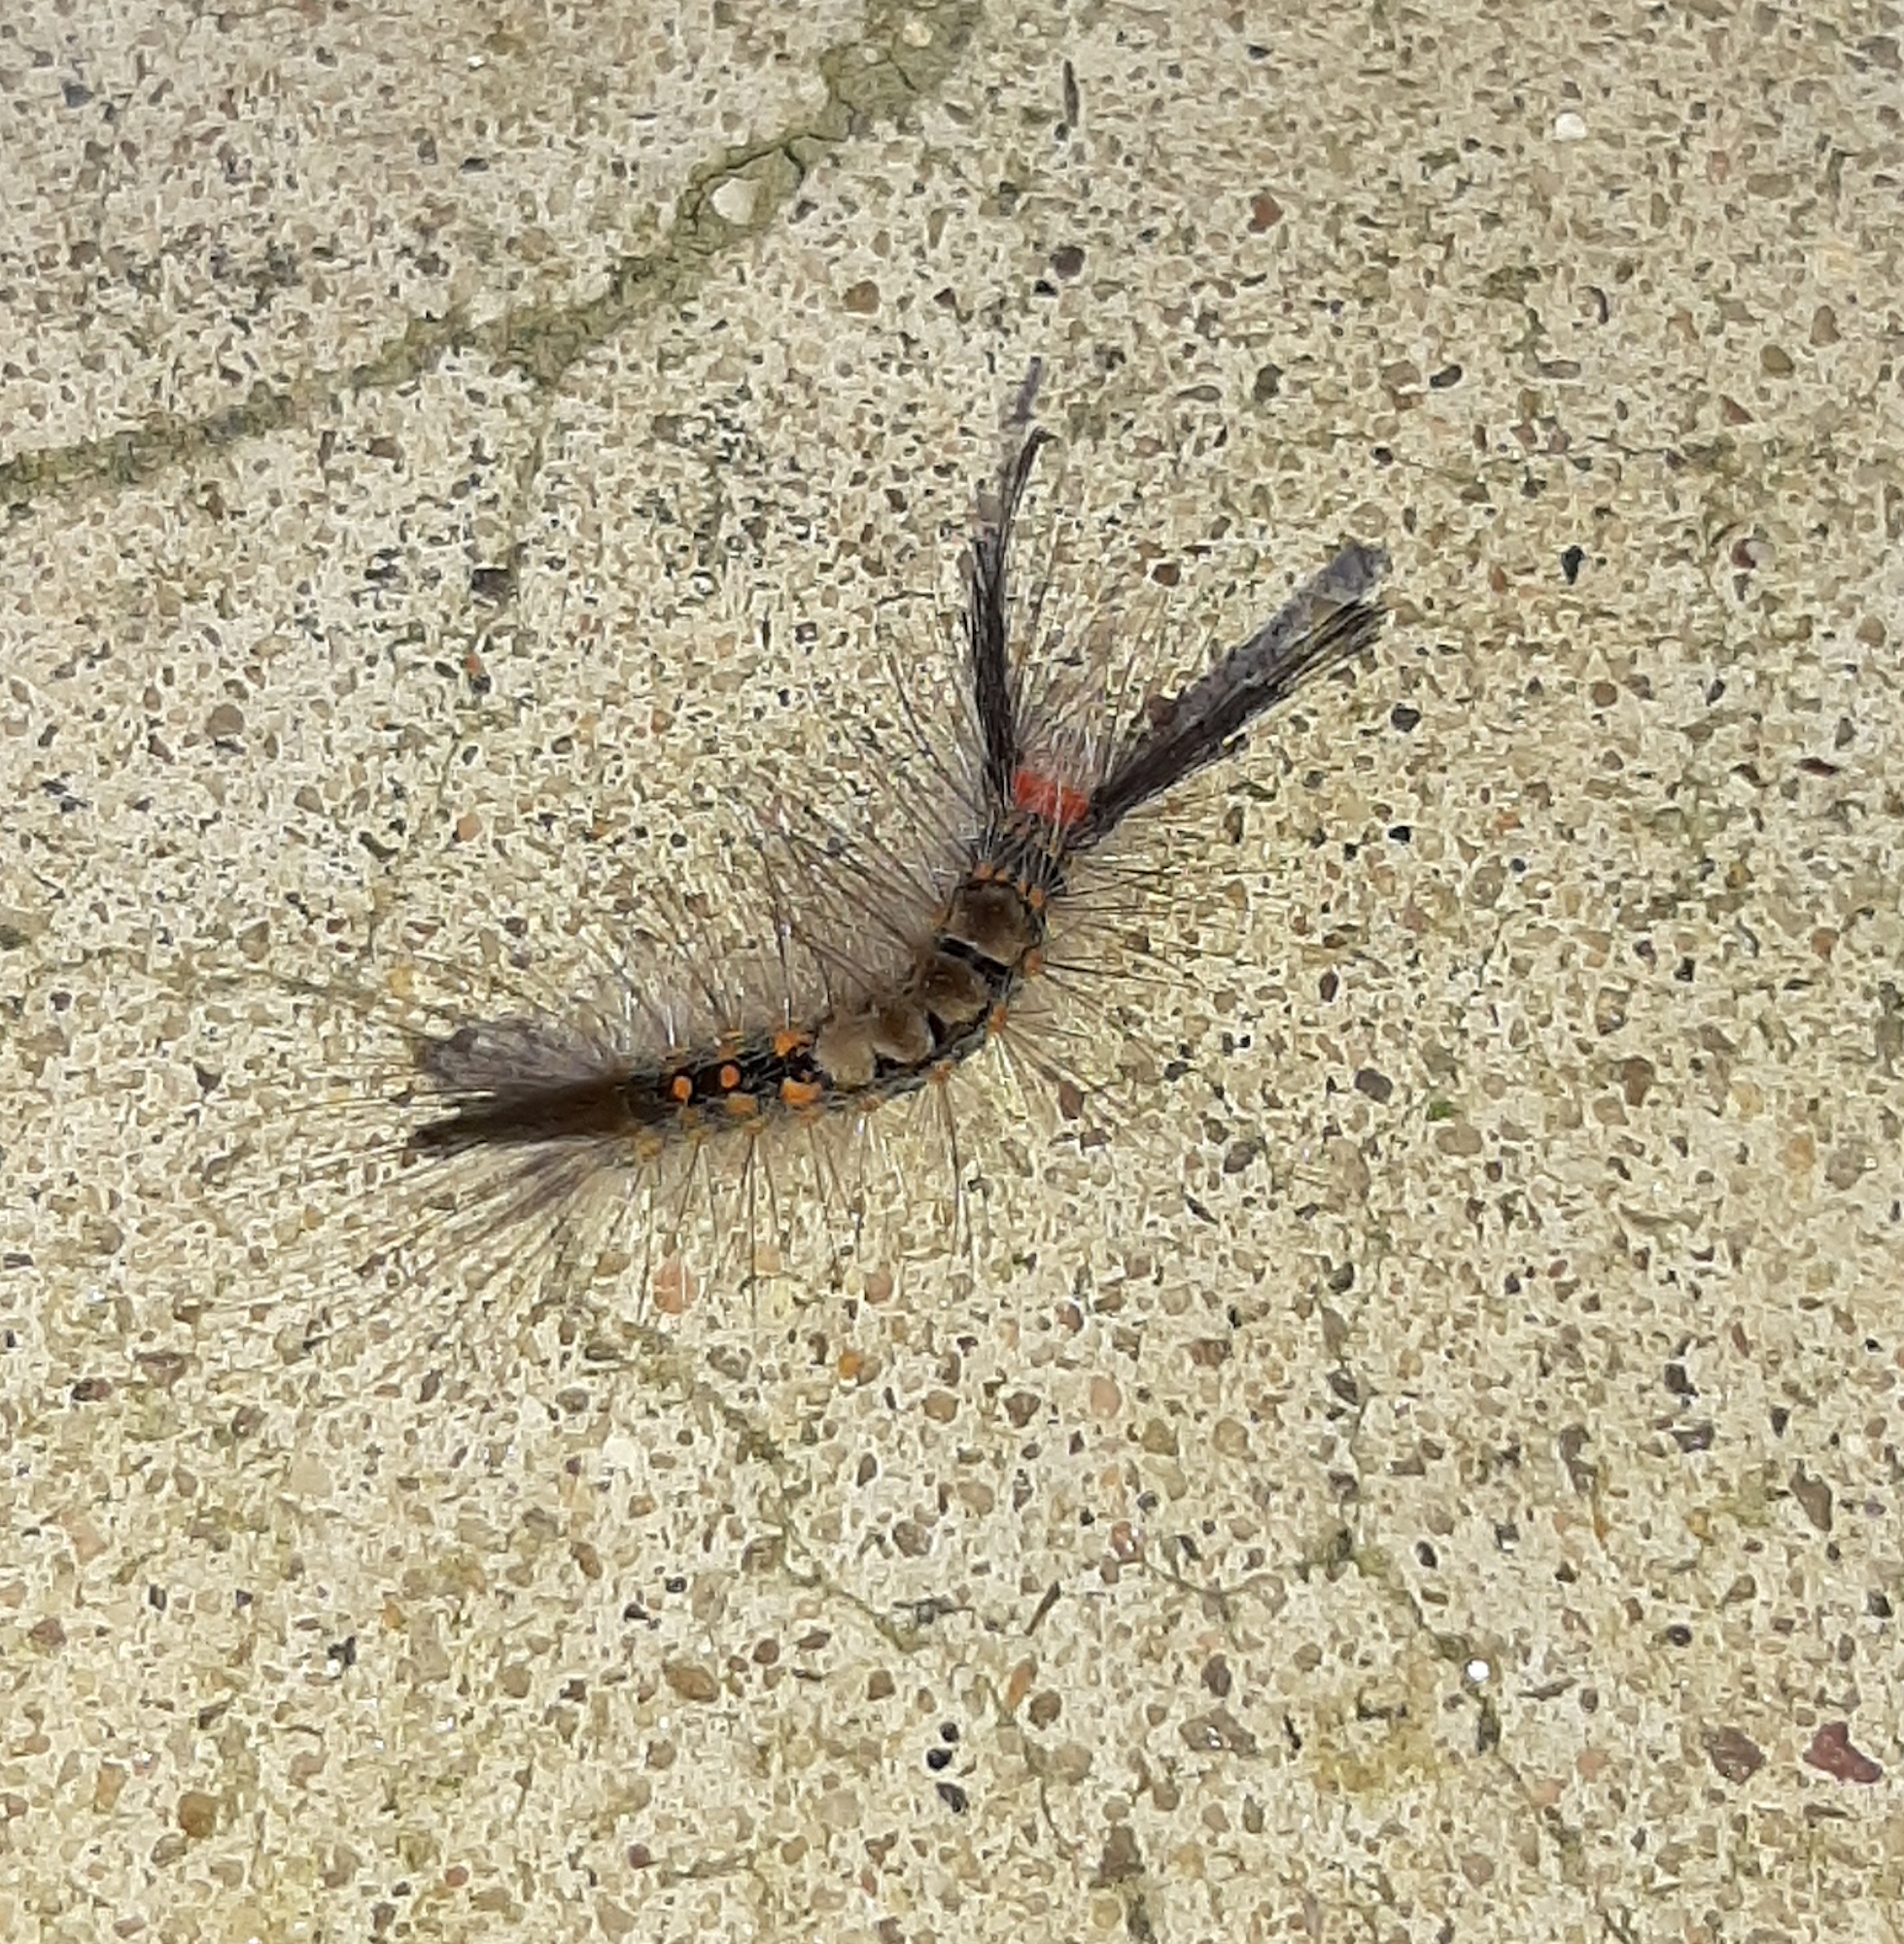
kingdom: Animalia
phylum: Arthropoda
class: Insecta
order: Lepidoptera
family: Erebidae
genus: Orgyia
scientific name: Orgyia detrita
